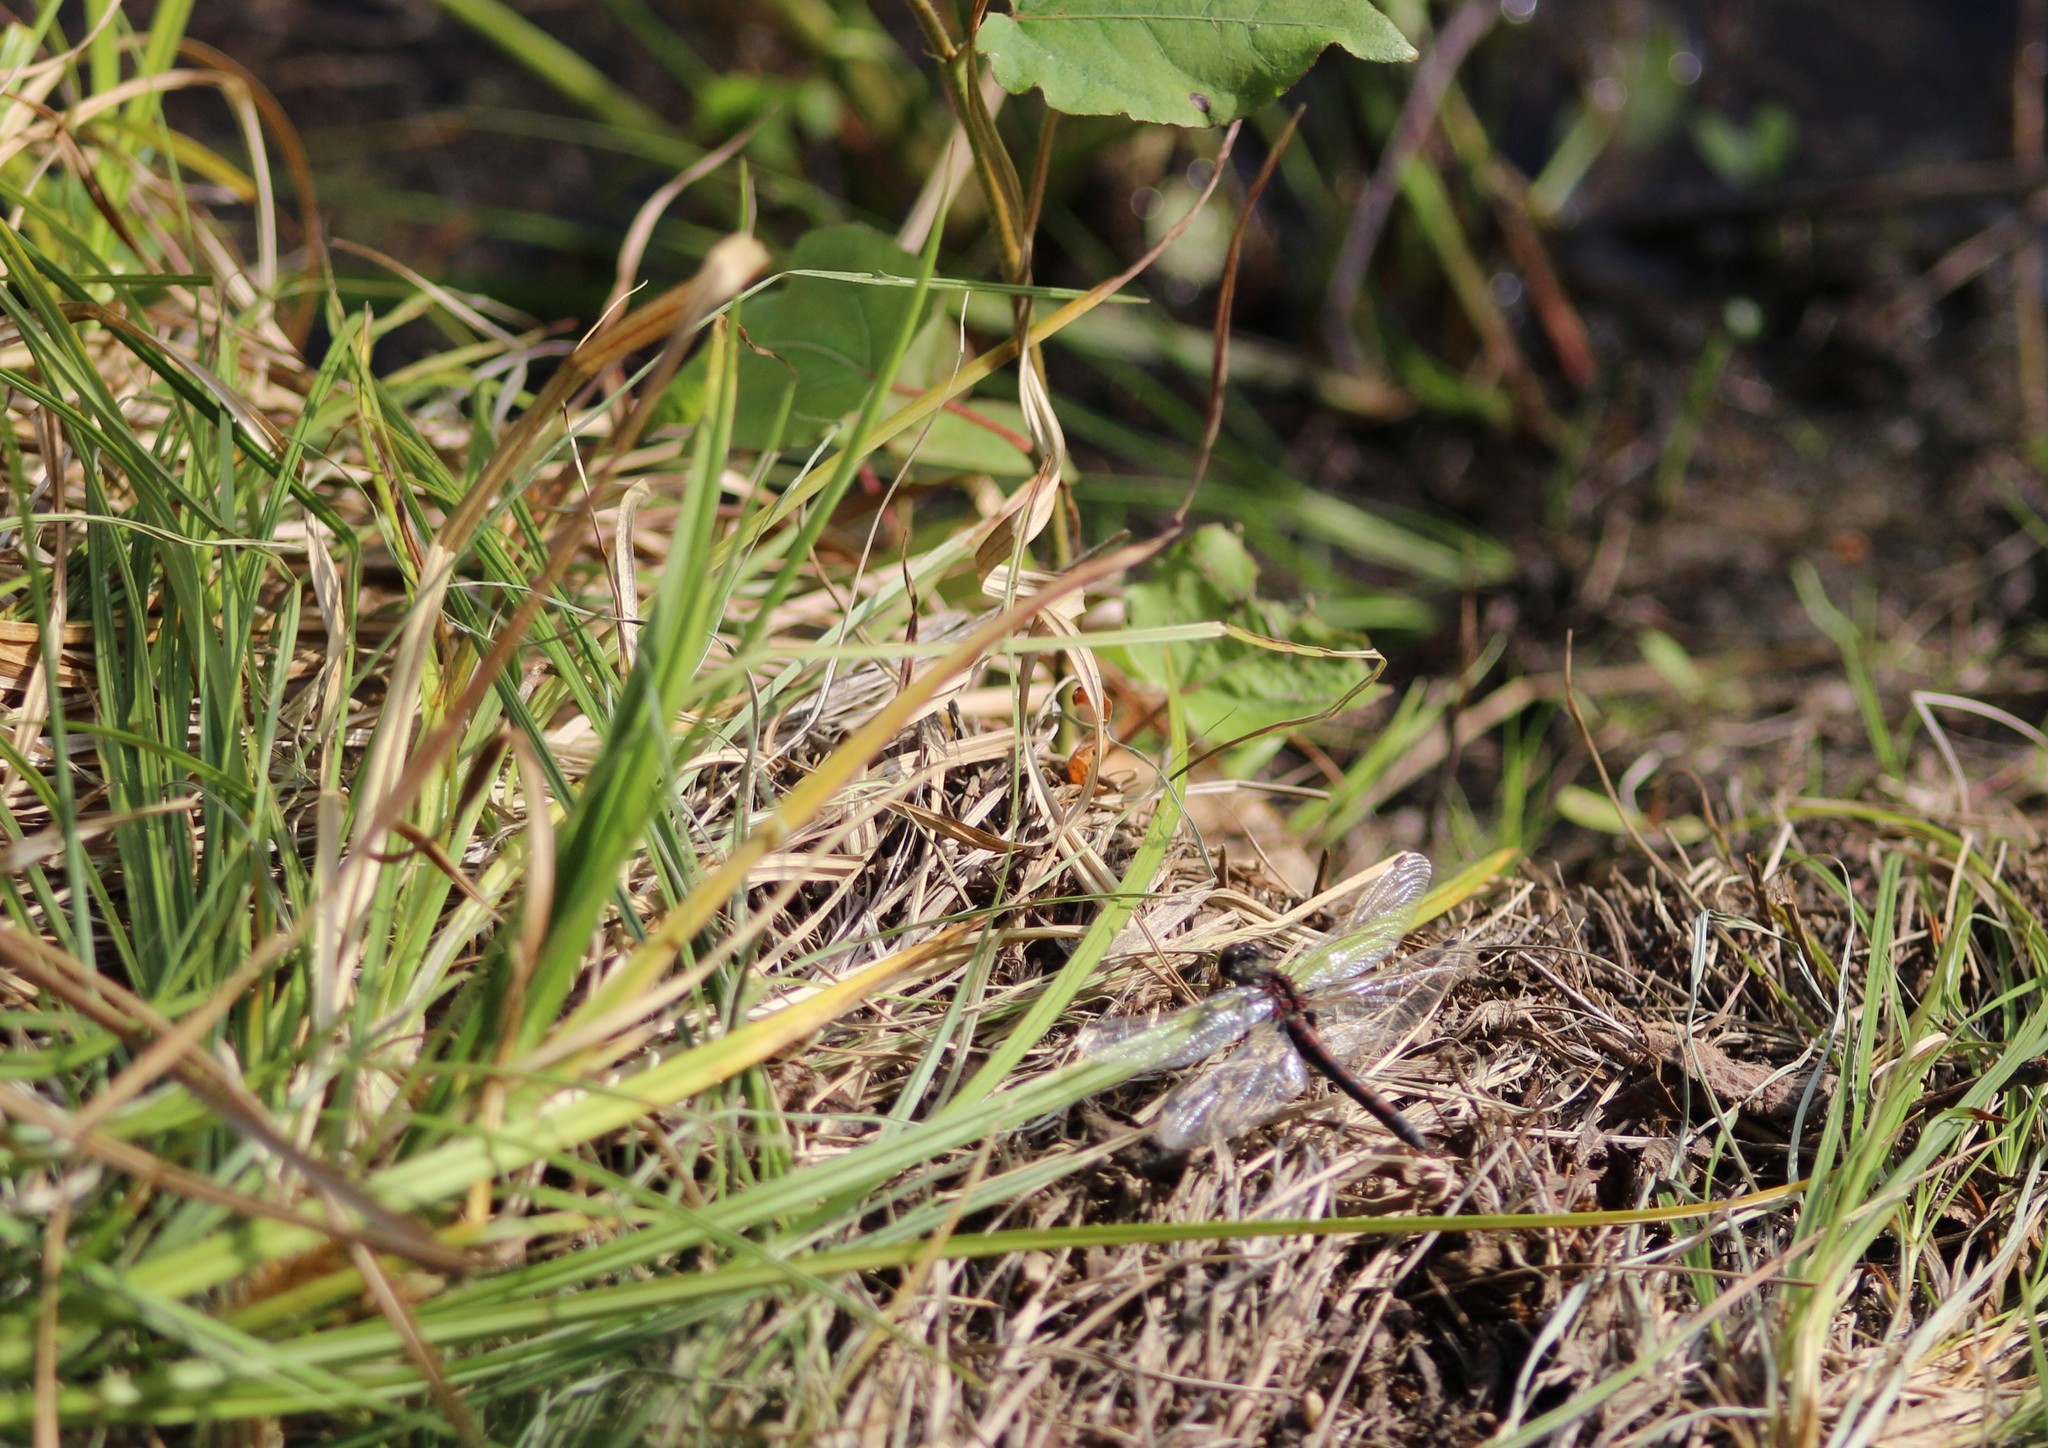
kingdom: Animalia
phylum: Arthropoda
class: Insecta
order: Odonata
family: Libellulidae
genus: Leucorrhinia
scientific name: Leucorrhinia rubicunda
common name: Ruby whiteface
